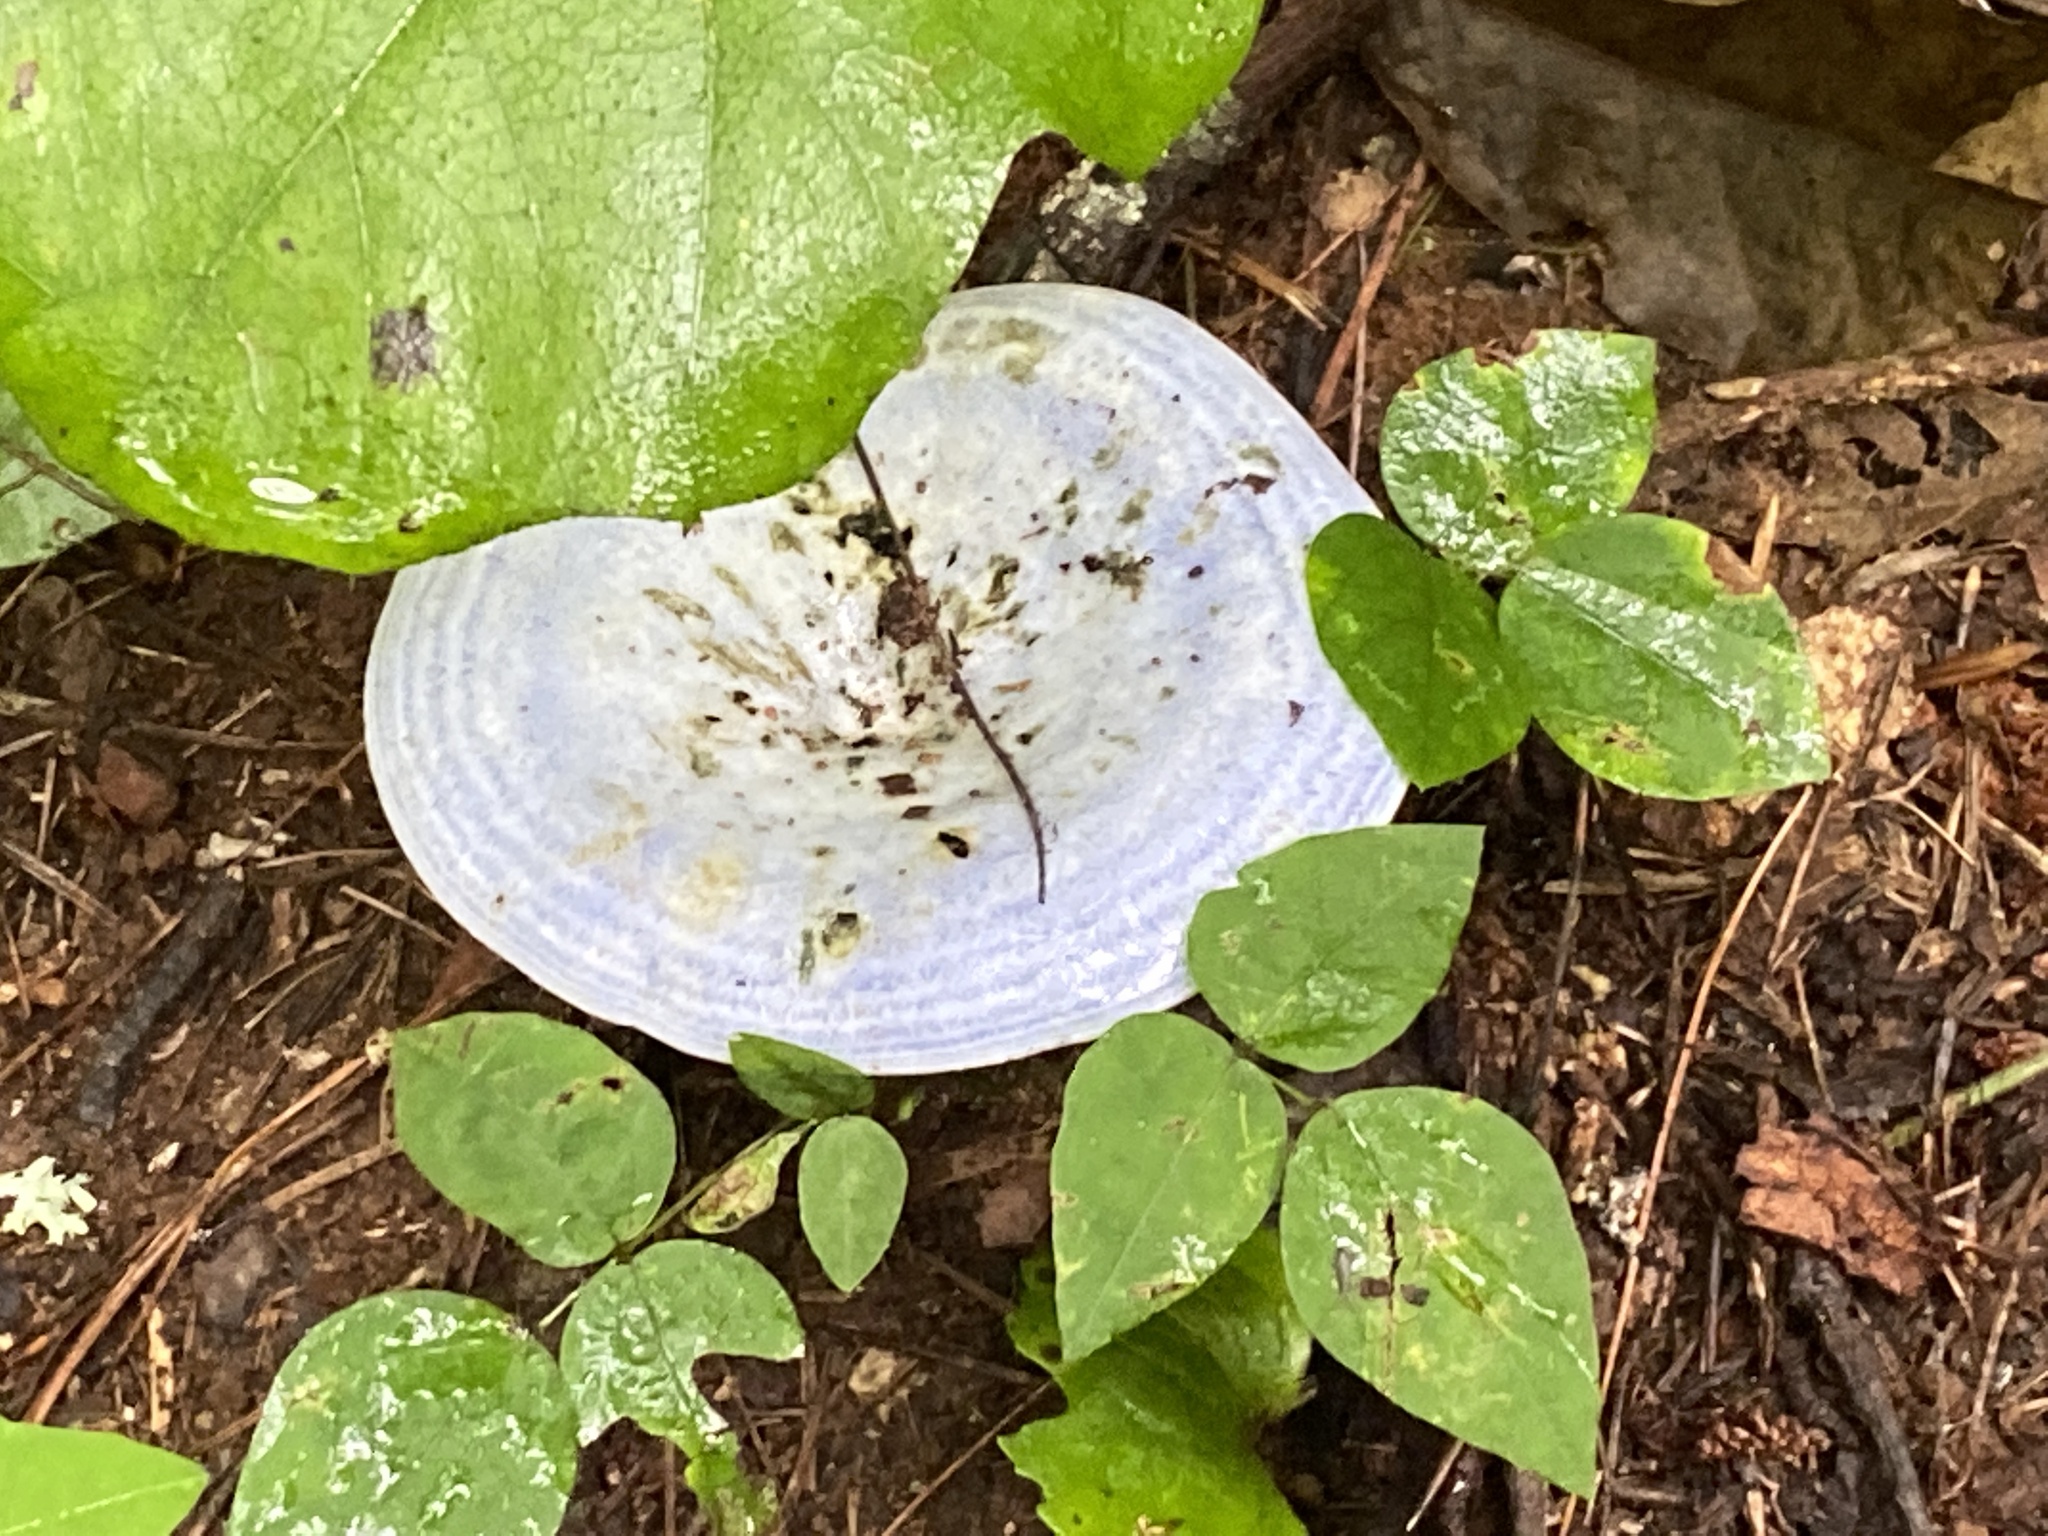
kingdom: Fungi
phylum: Basidiomycota
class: Agaricomycetes
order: Russulales
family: Russulaceae
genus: Lactarius
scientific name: Lactarius indigo
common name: Indigo milk cap
